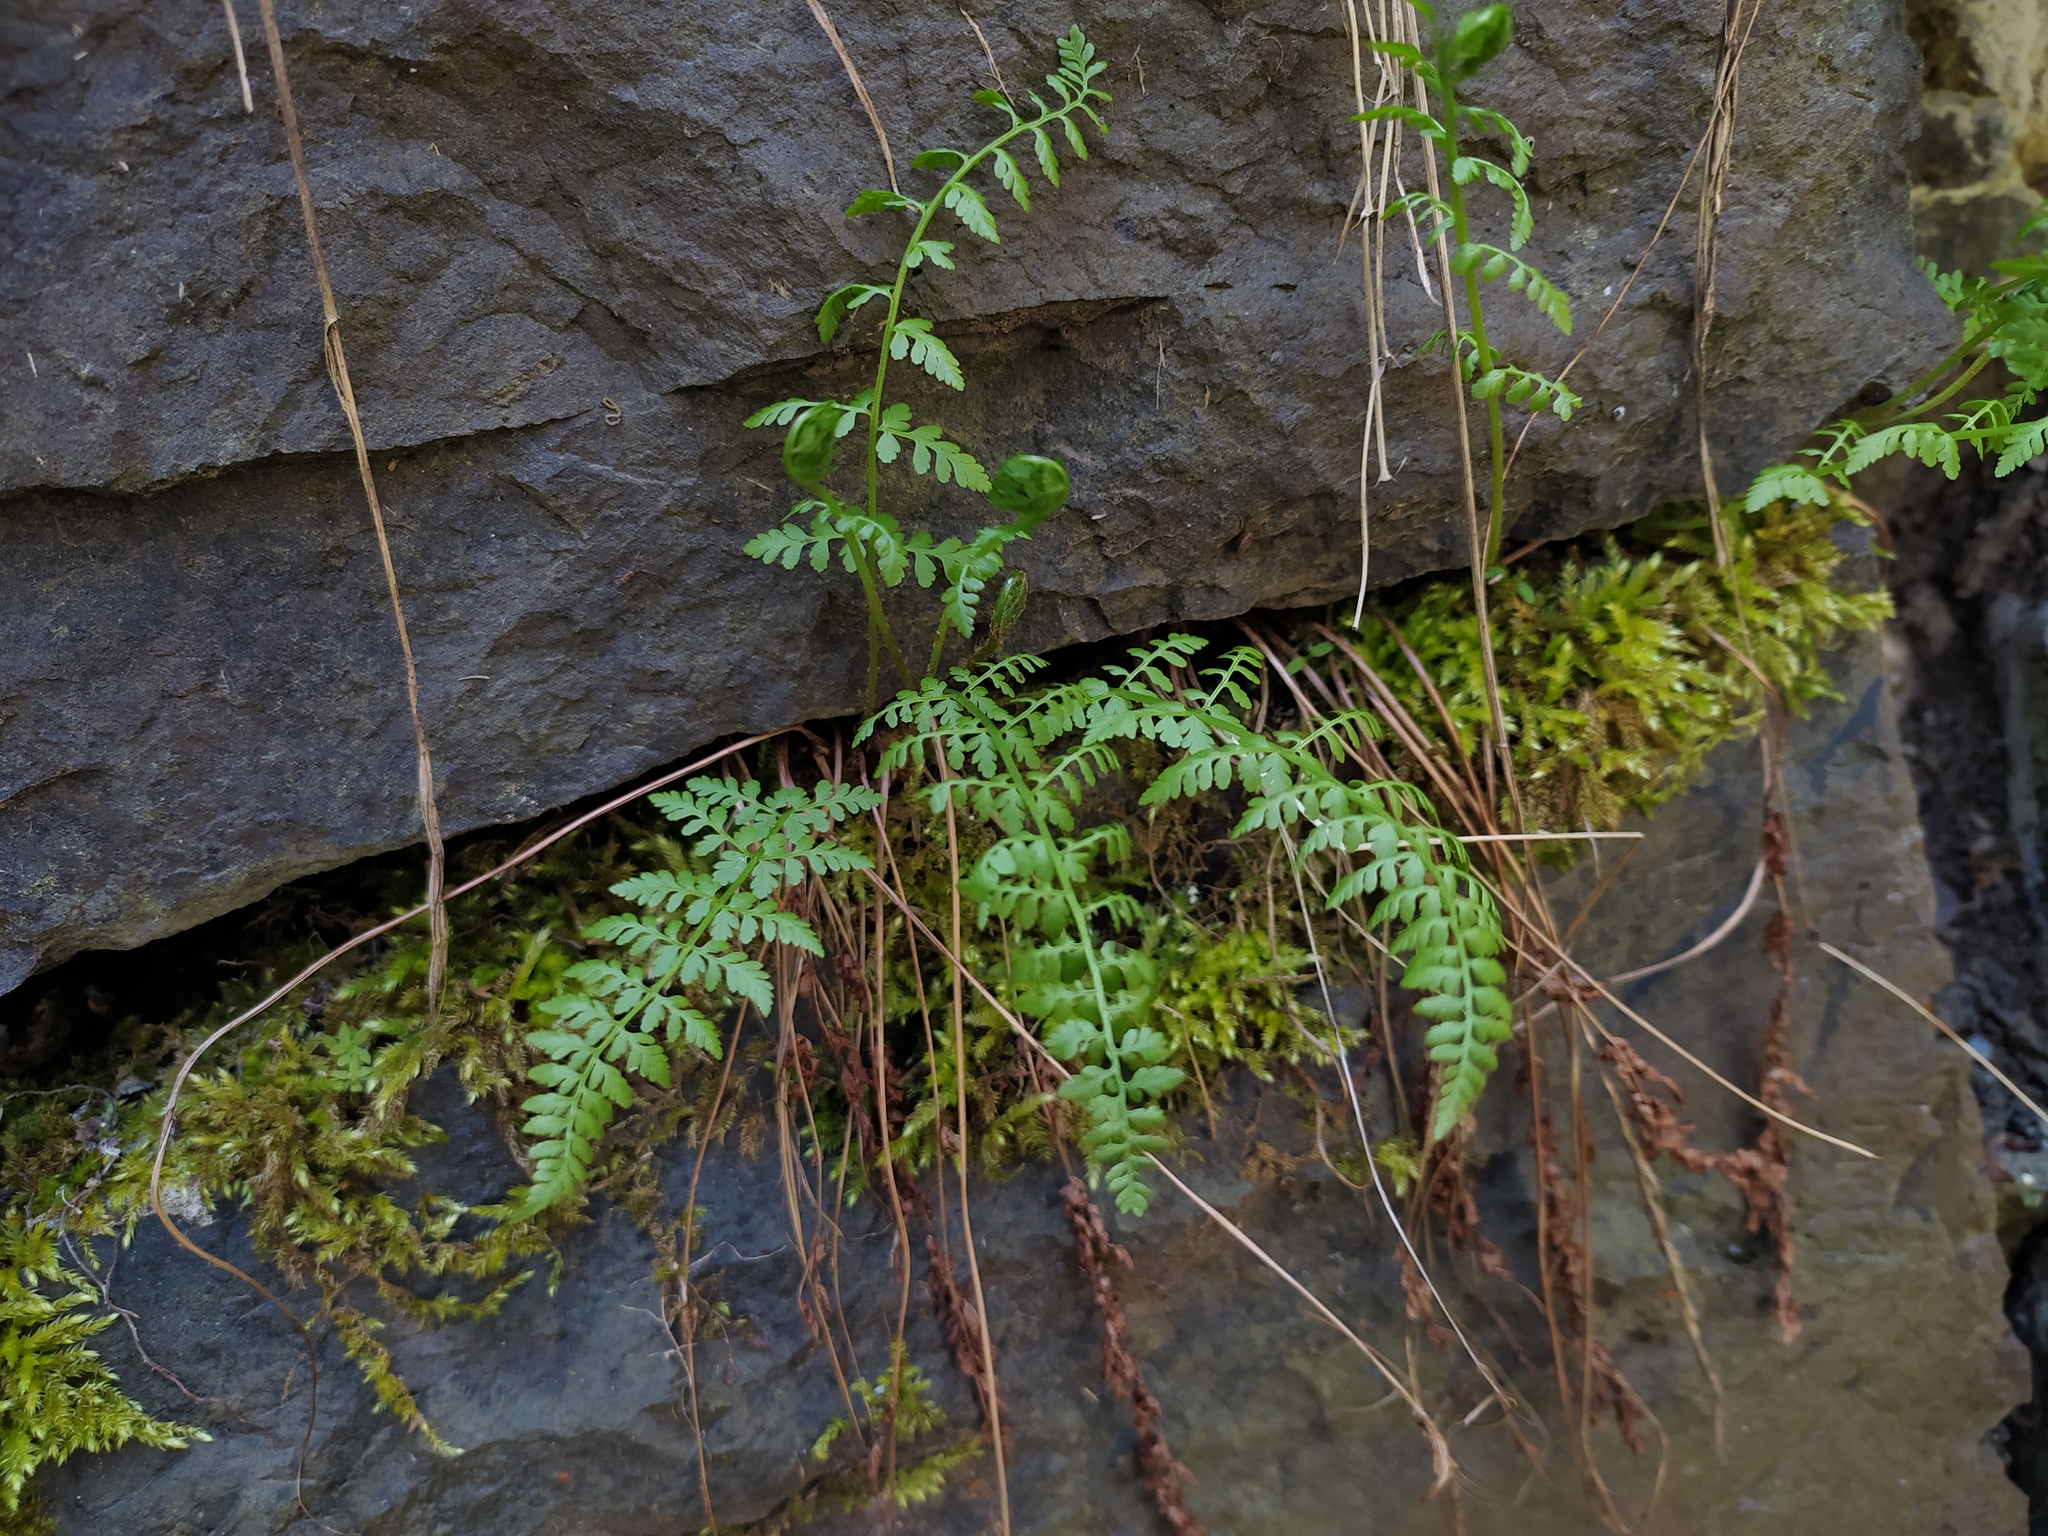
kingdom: Plantae
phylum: Tracheophyta
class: Polypodiopsida
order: Polypodiales
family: Cystopteridaceae
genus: Cystopteris
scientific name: Cystopteris fragilis
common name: Brittle bladder fern
